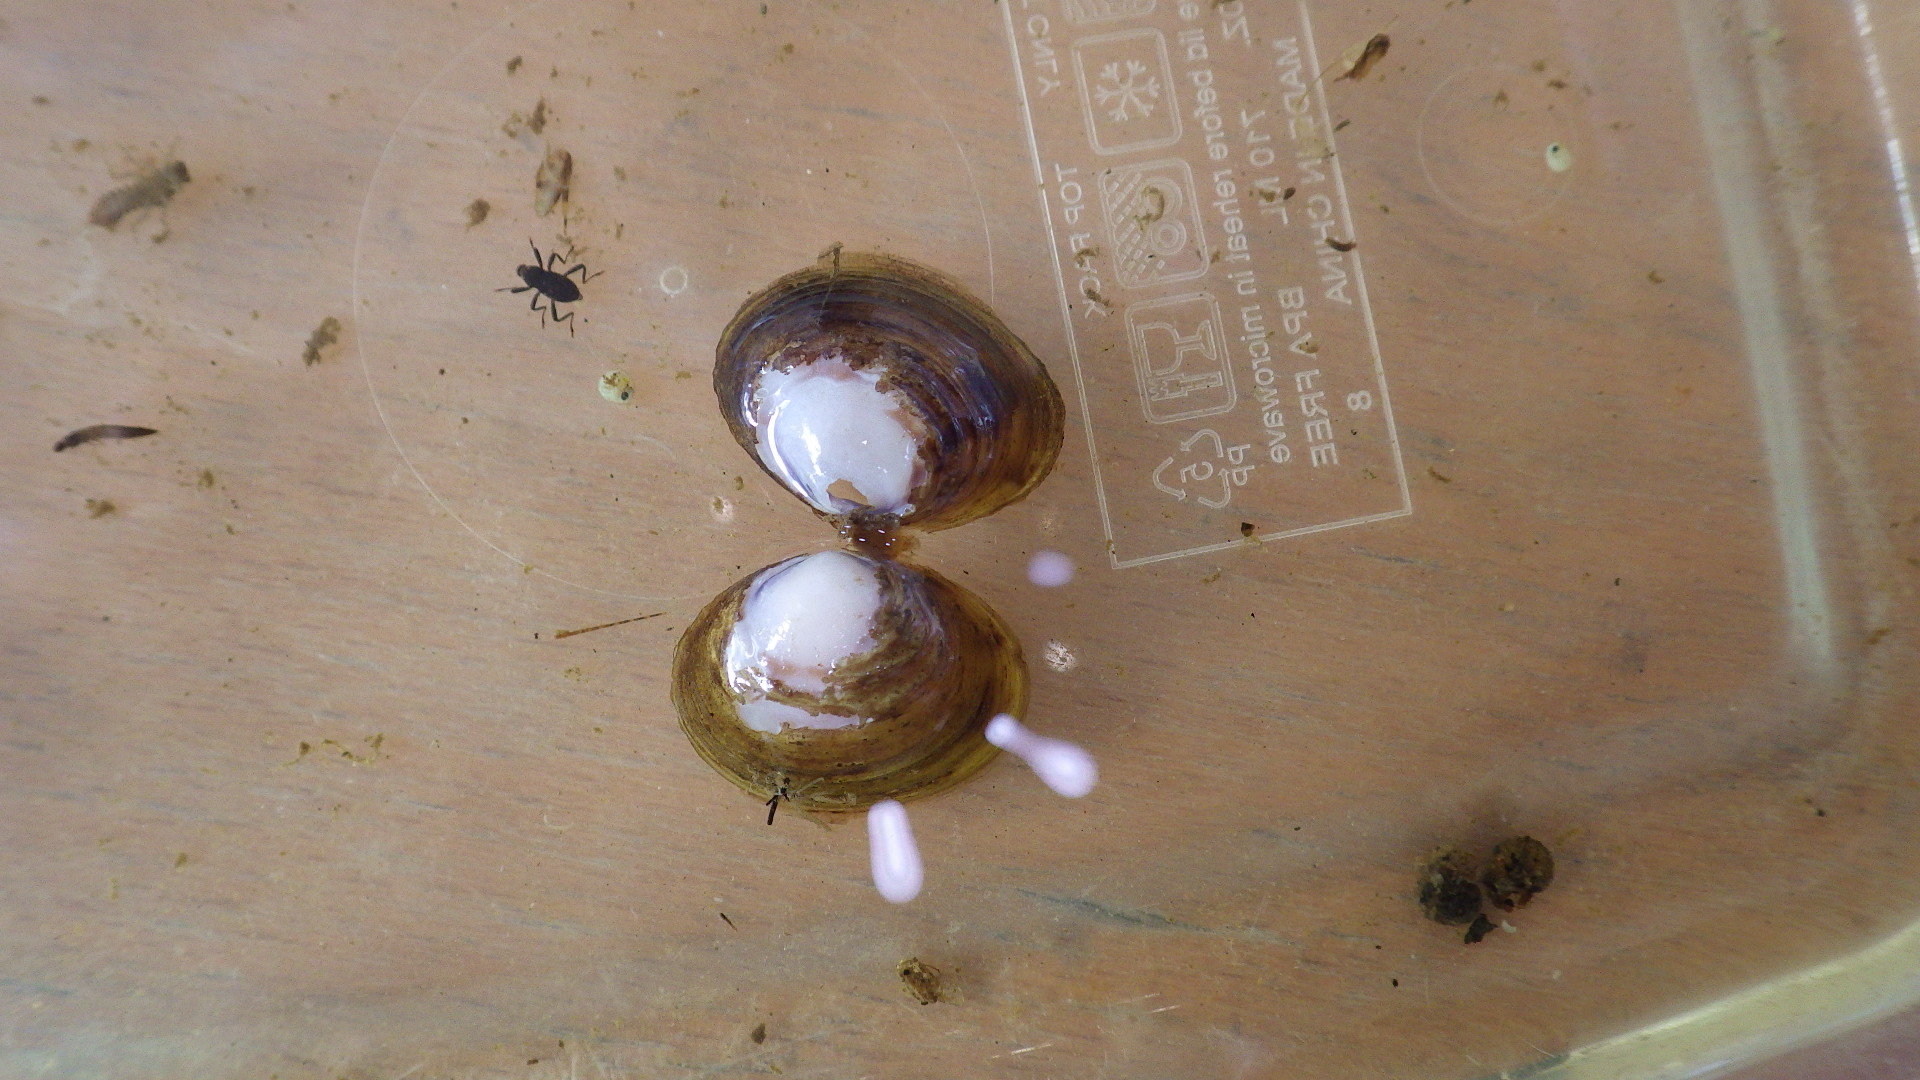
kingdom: Animalia
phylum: Mollusca
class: Bivalvia
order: Venerida
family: Cyrenidae
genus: Corbicula
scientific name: Corbicula fluminea
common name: Asian clam
